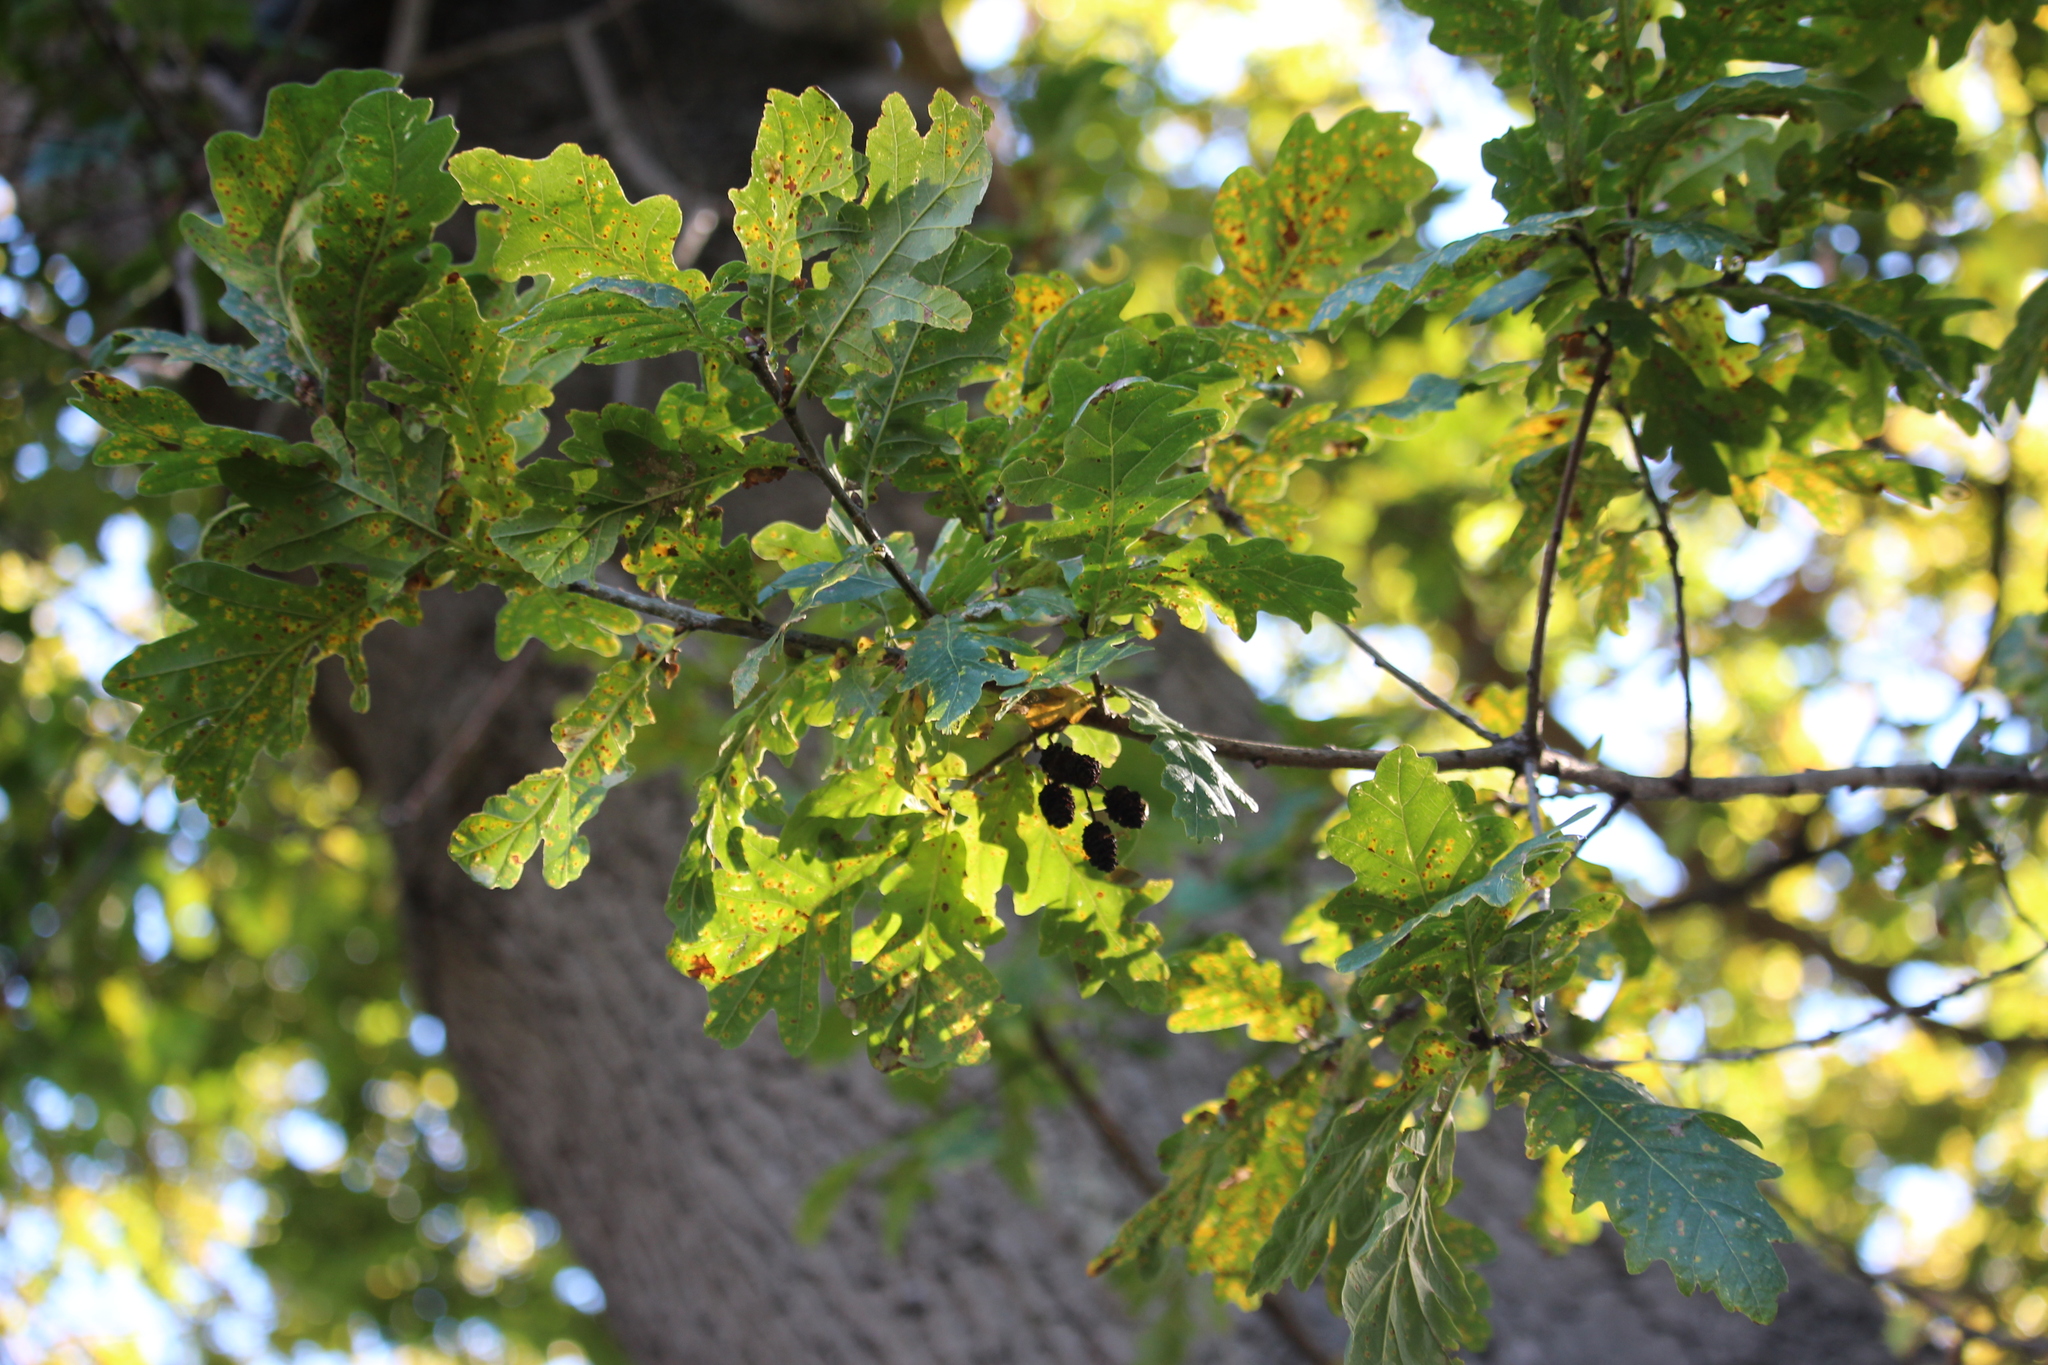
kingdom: Plantae
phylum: Tracheophyta
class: Magnoliopsida
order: Fagales
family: Fagaceae
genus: Quercus
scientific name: Quercus robur
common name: Pedunculate oak
